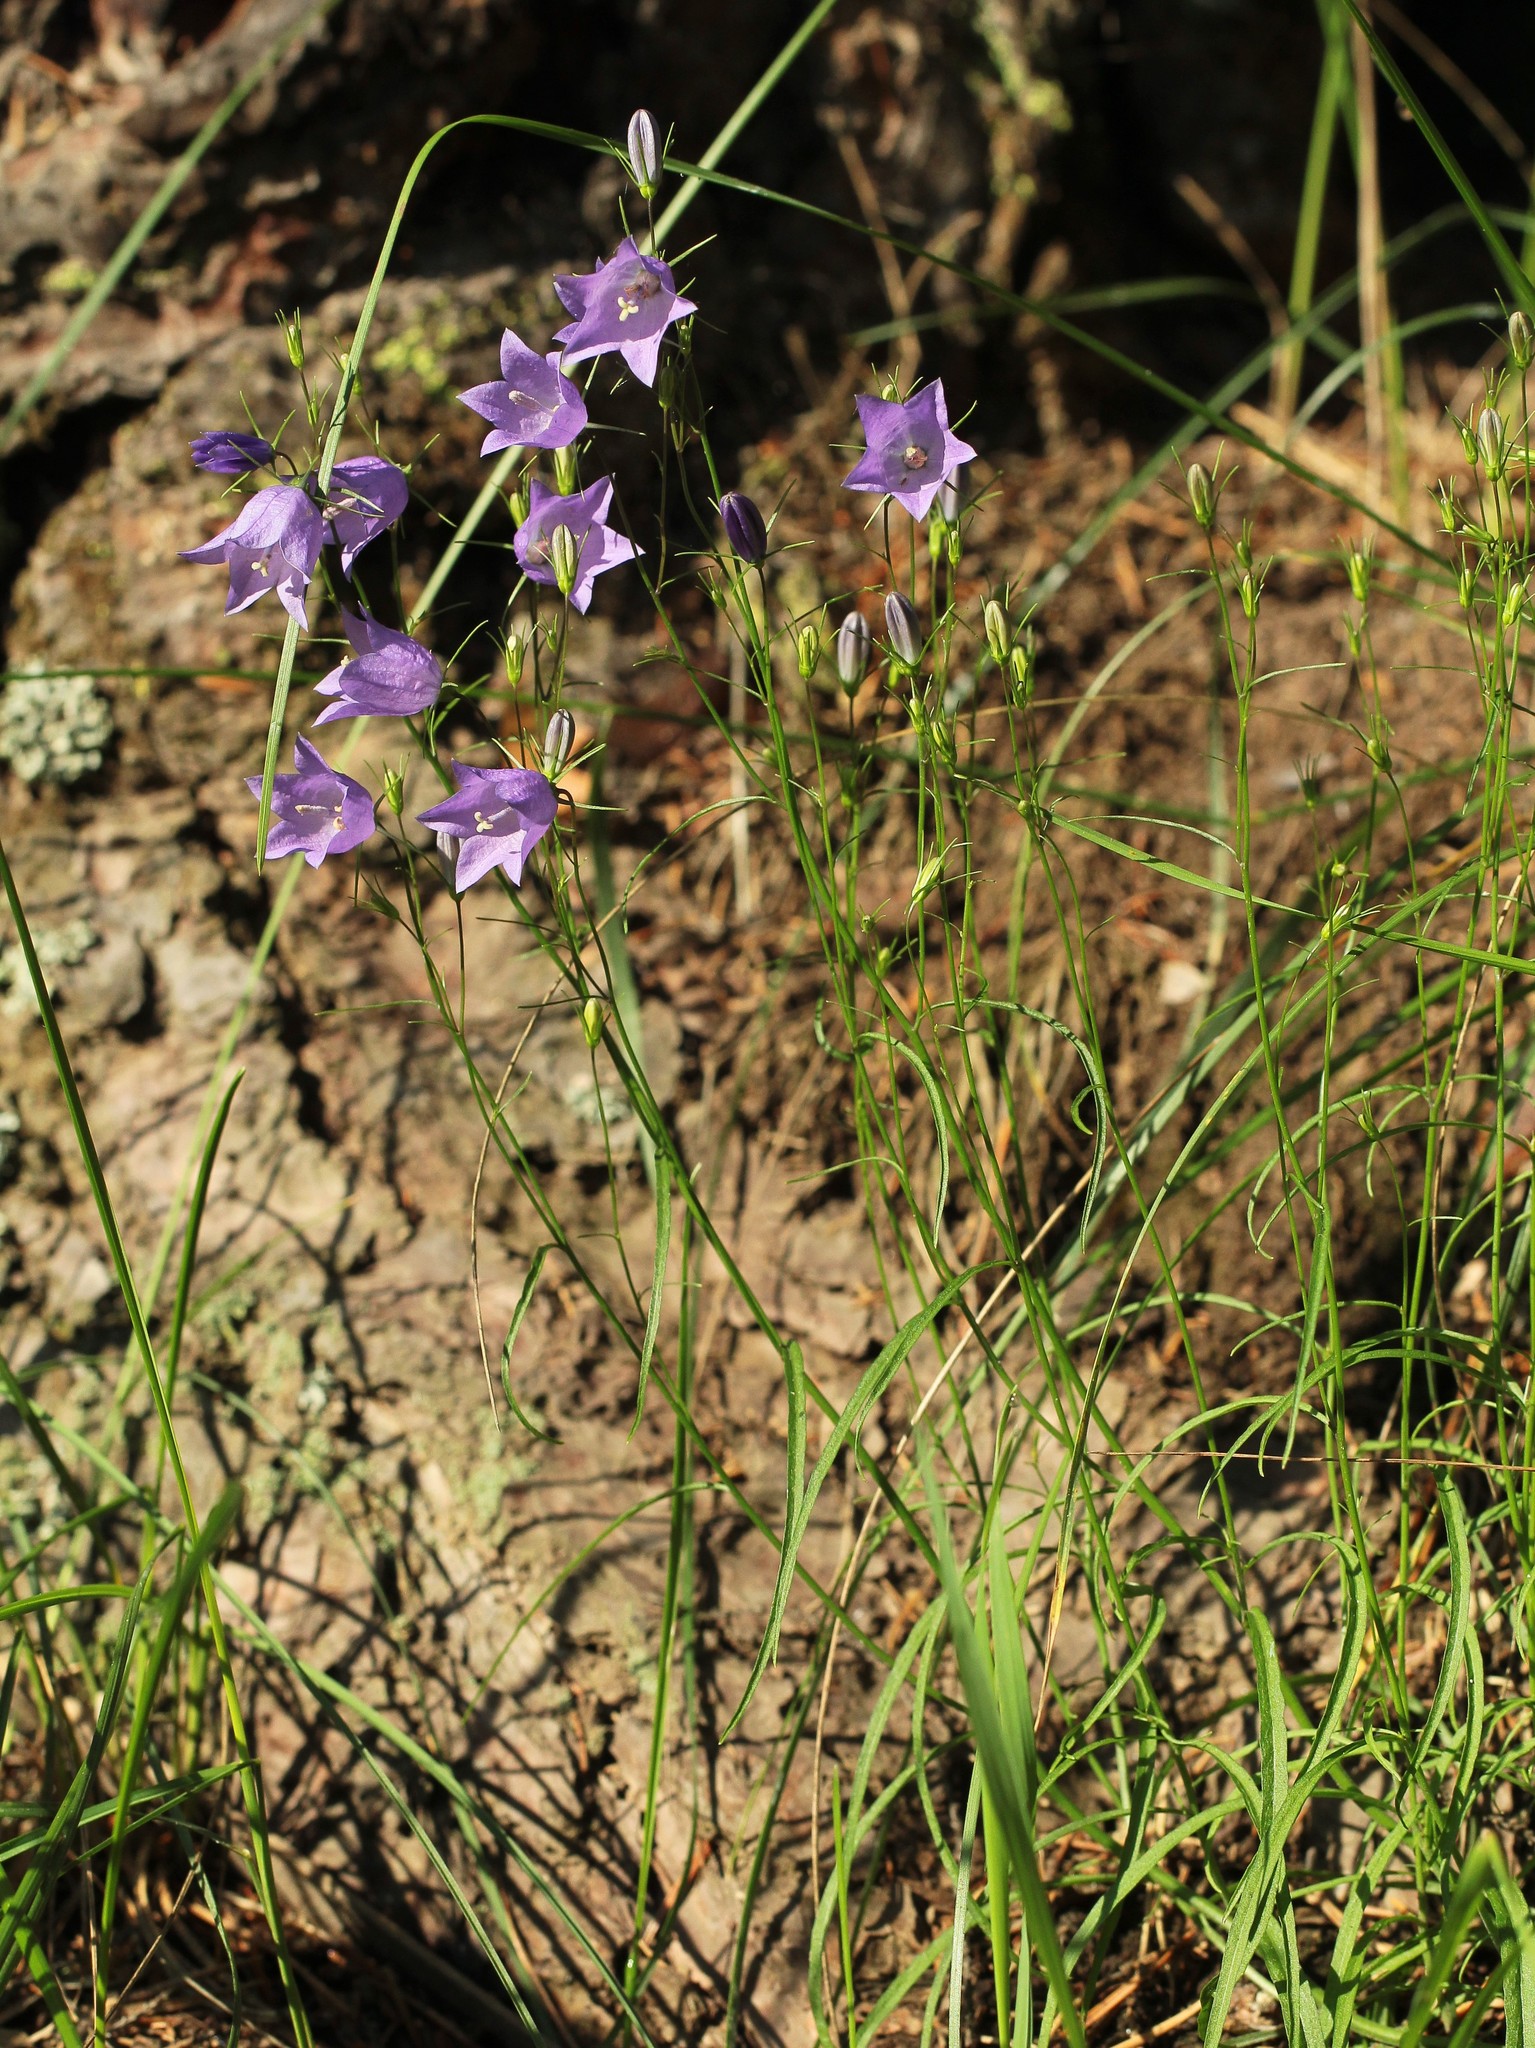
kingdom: Plantae
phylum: Tracheophyta
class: Magnoliopsida
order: Asterales
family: Campanulaceae
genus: Campanula
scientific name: Campanula rotundifolia
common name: Harebell
